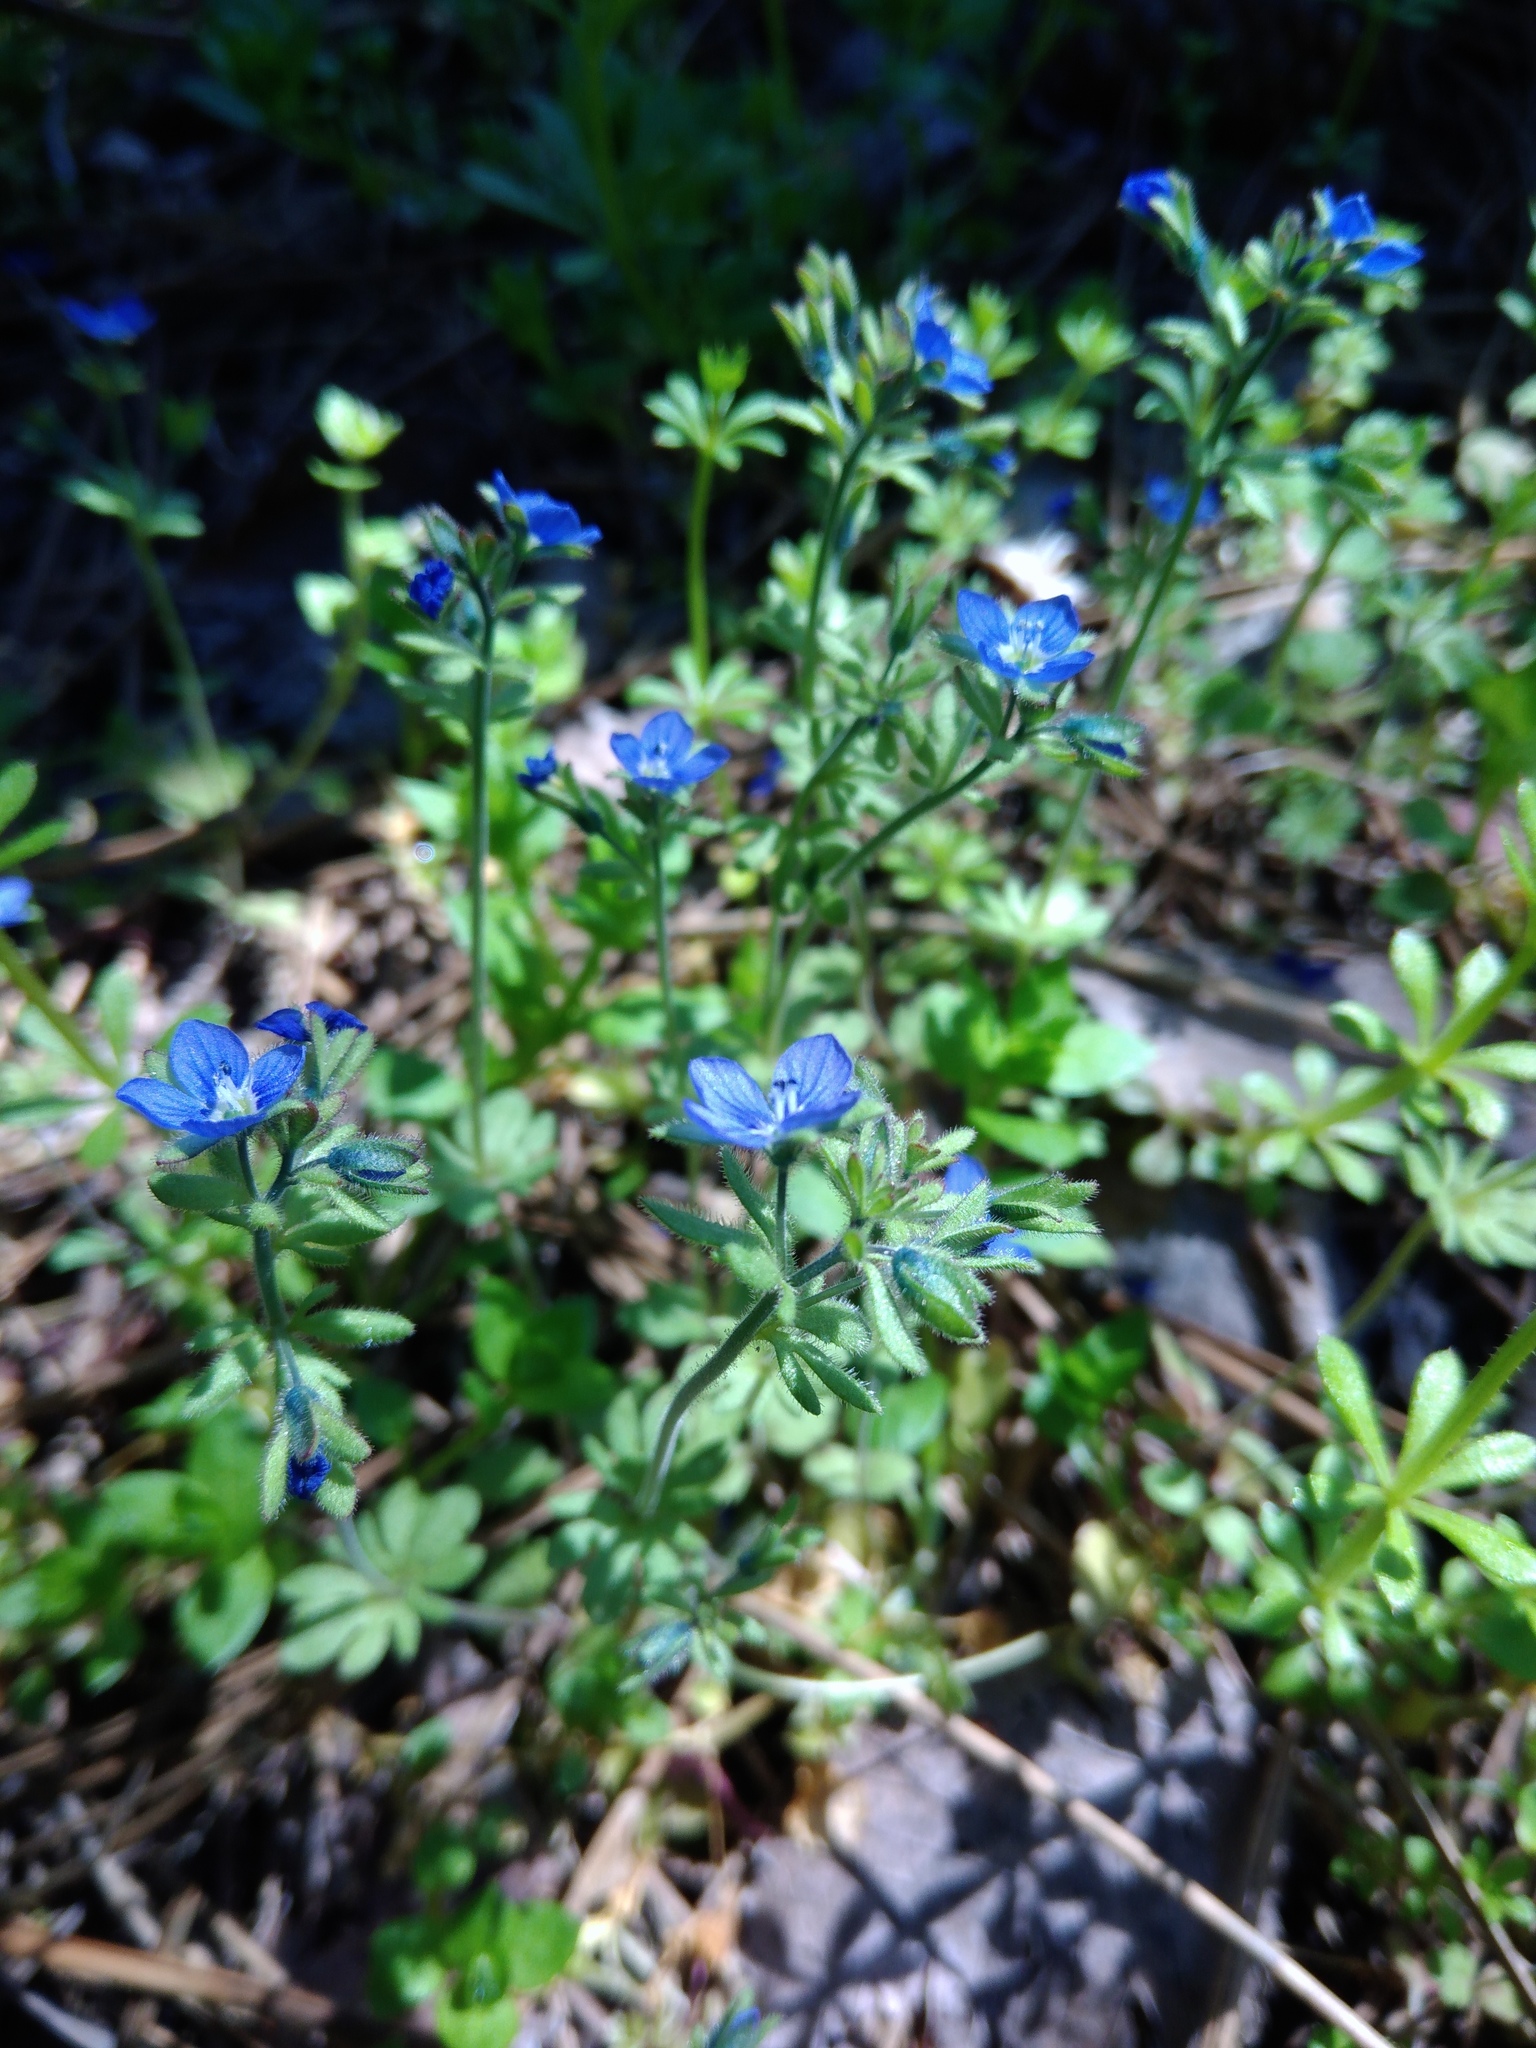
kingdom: Plantae
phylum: Tracheophyta
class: Magnoliopsida
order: Lamiales
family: Plantaginaceae
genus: Veronica
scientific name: Veronica triphyllos
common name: Fingered speedwell
